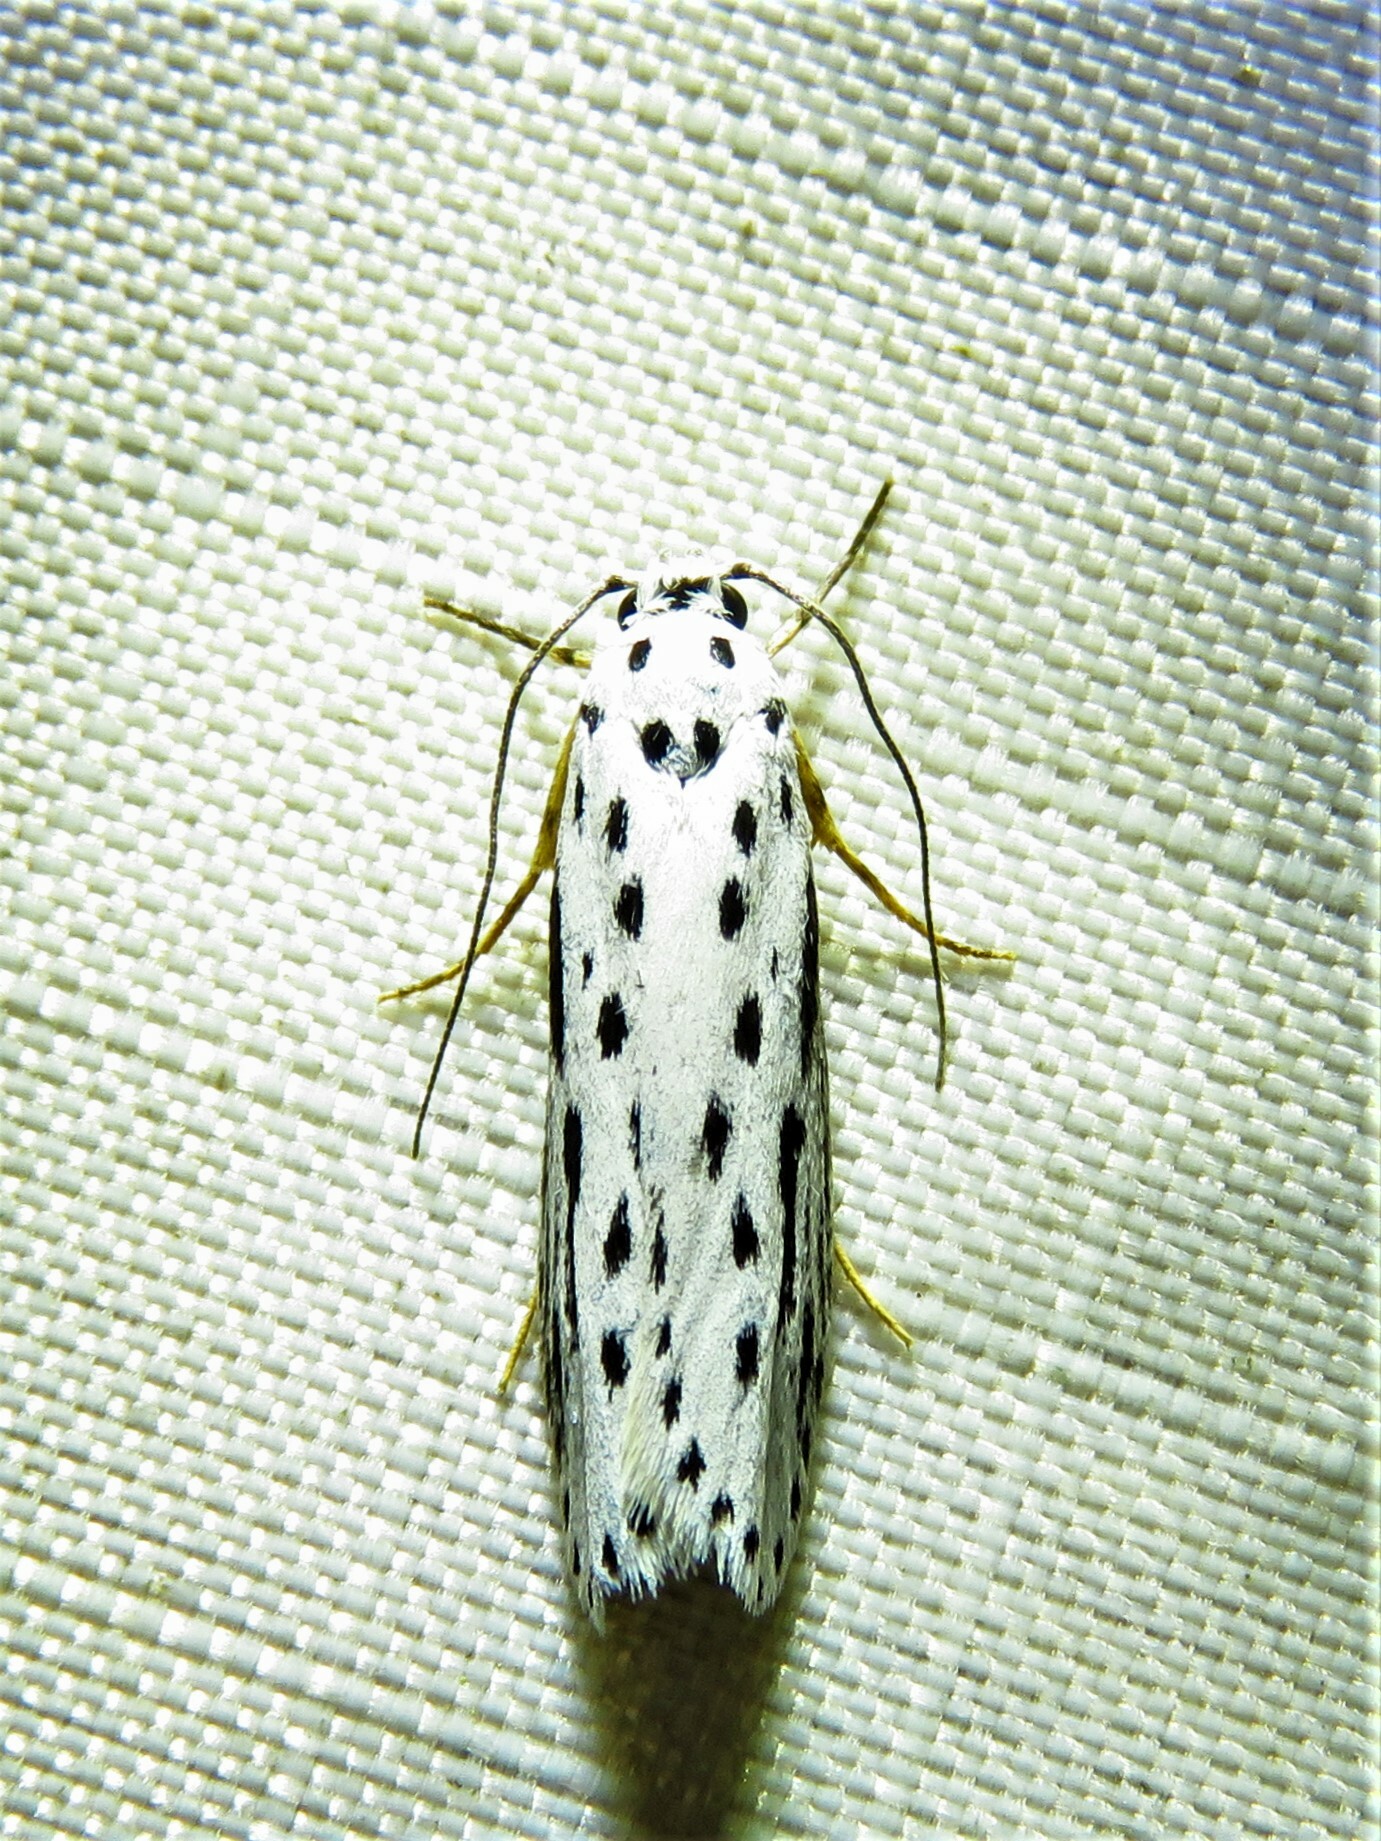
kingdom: Animalia
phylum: Arthropoda
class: Insecta
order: Lepidoptera
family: Ethmiidae
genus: Ethmia
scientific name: Ethmia zelleriella
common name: Zeller's ethmia
